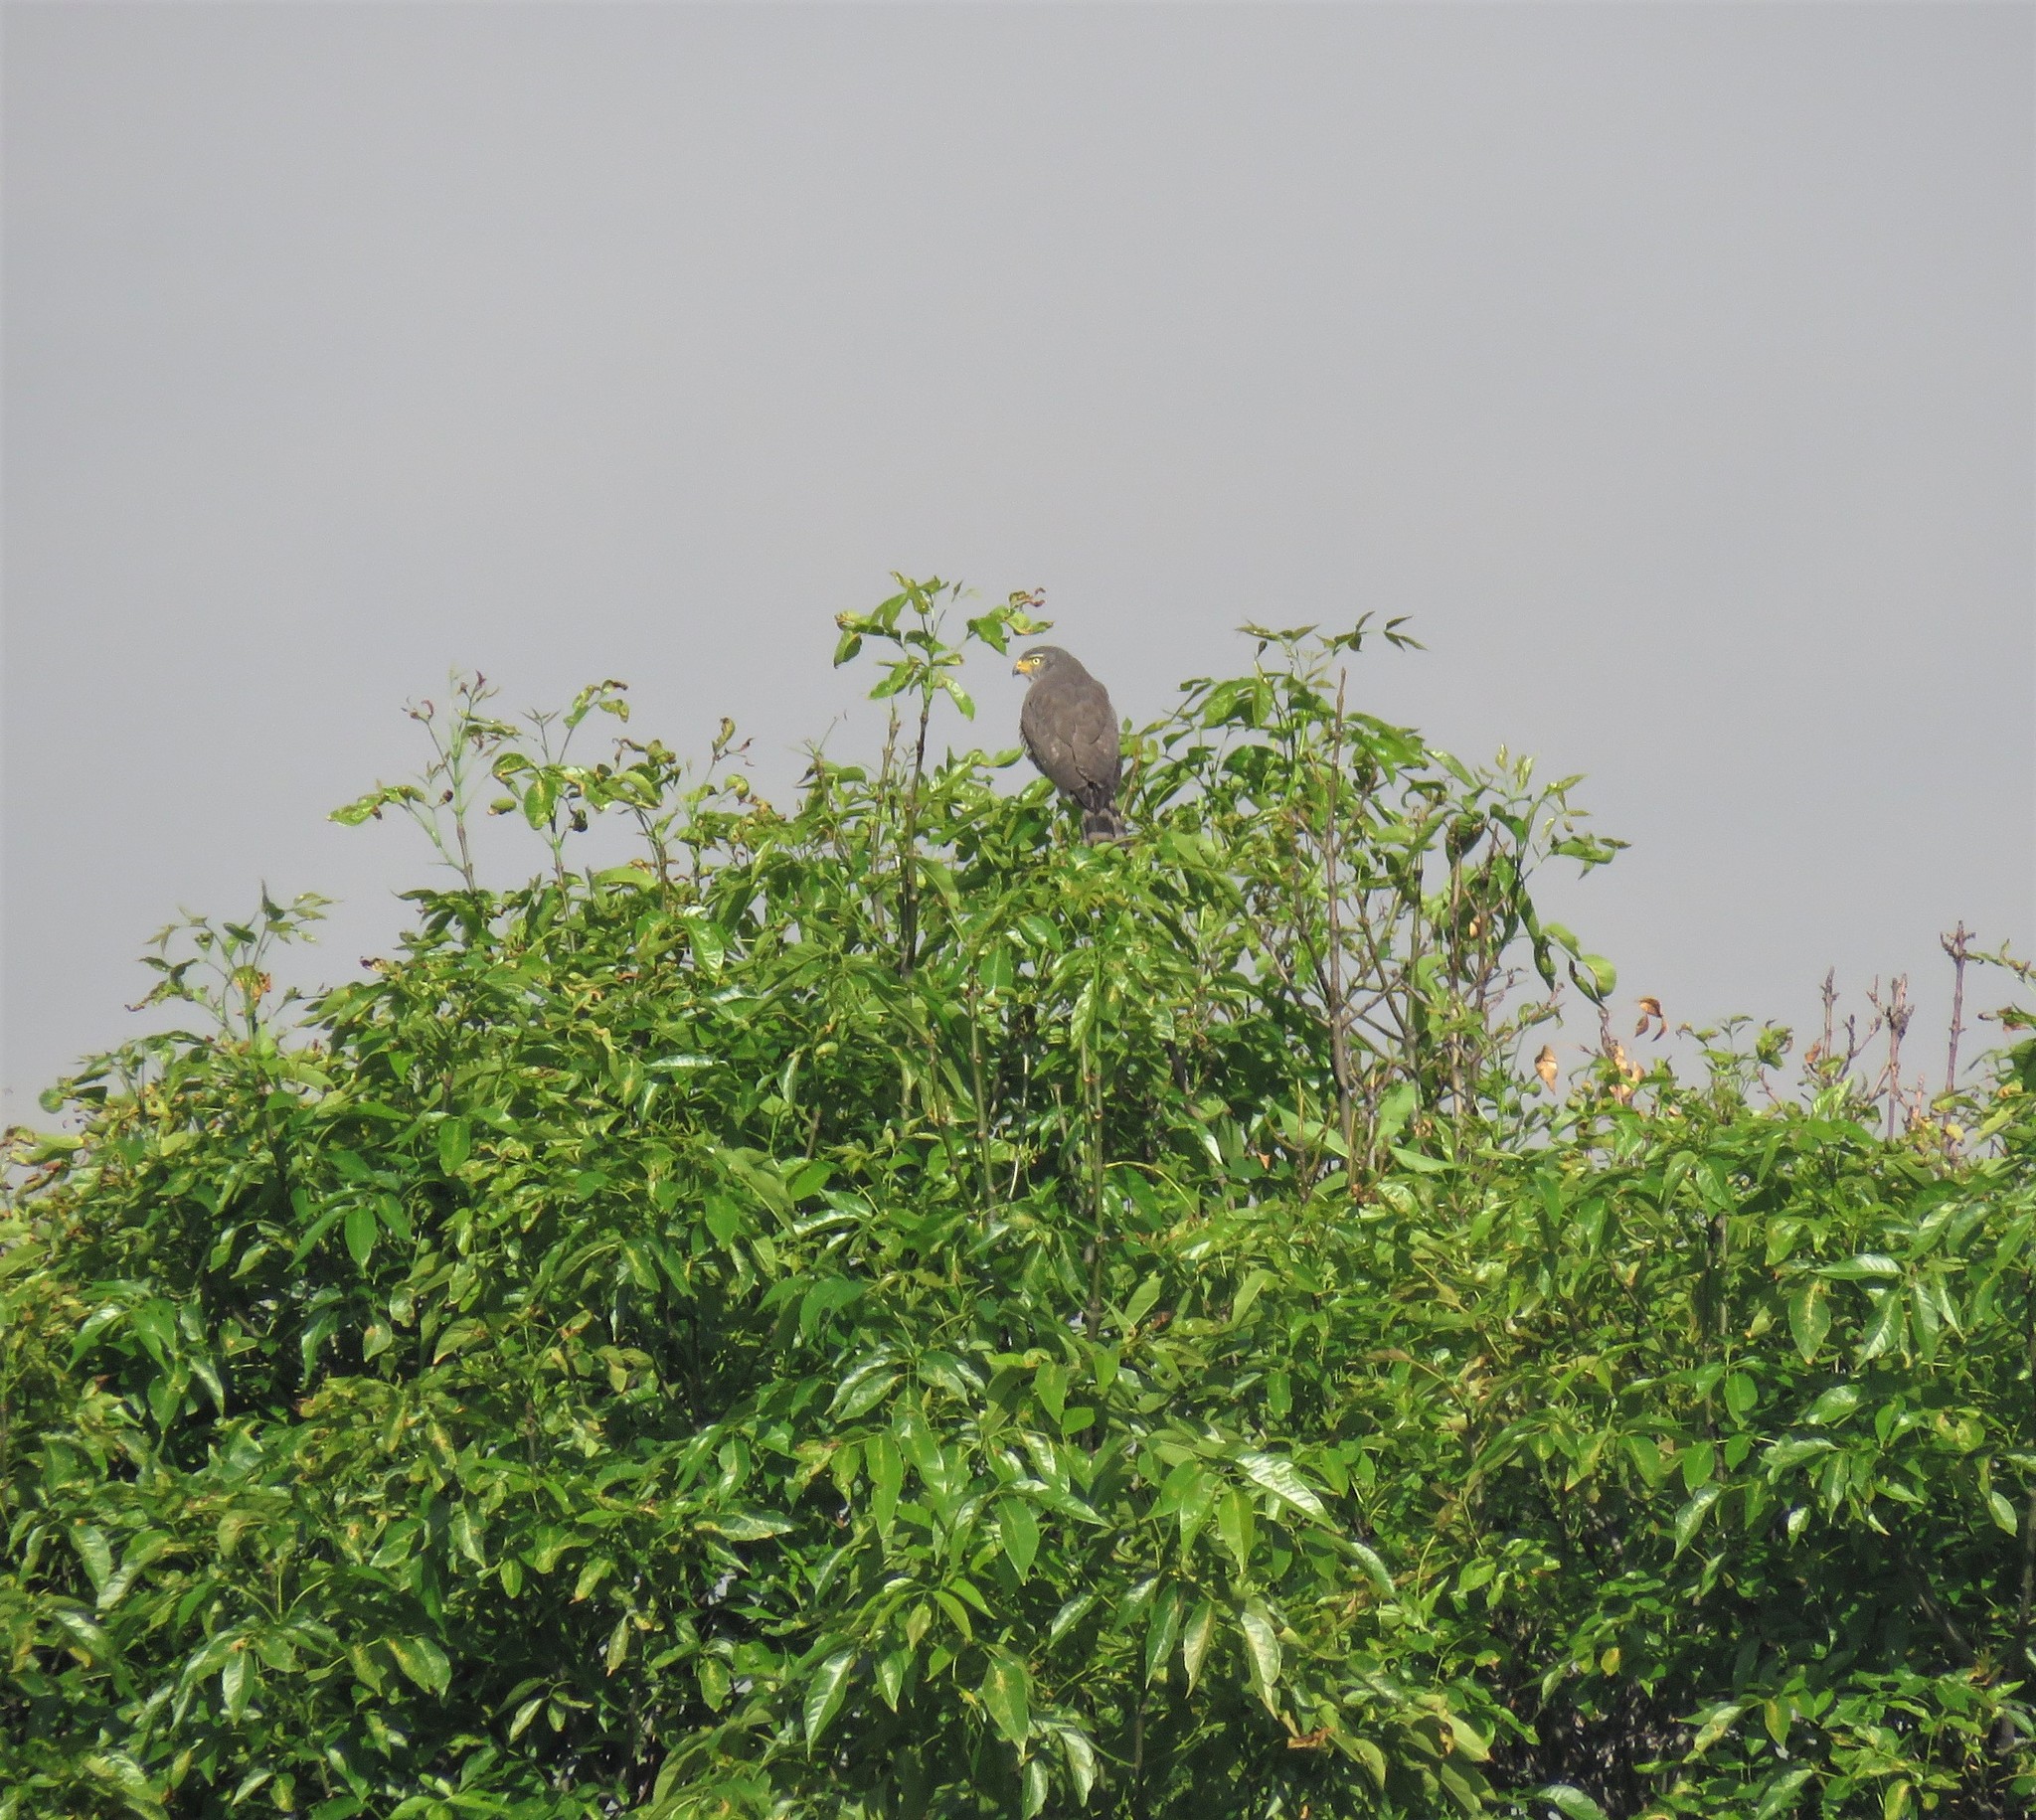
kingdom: Animalia
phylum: Chordata
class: Aves
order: Accipitriformes
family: Accipitridae
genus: Rupornis
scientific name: Rupornis magnirostris
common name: Roadside hawk
